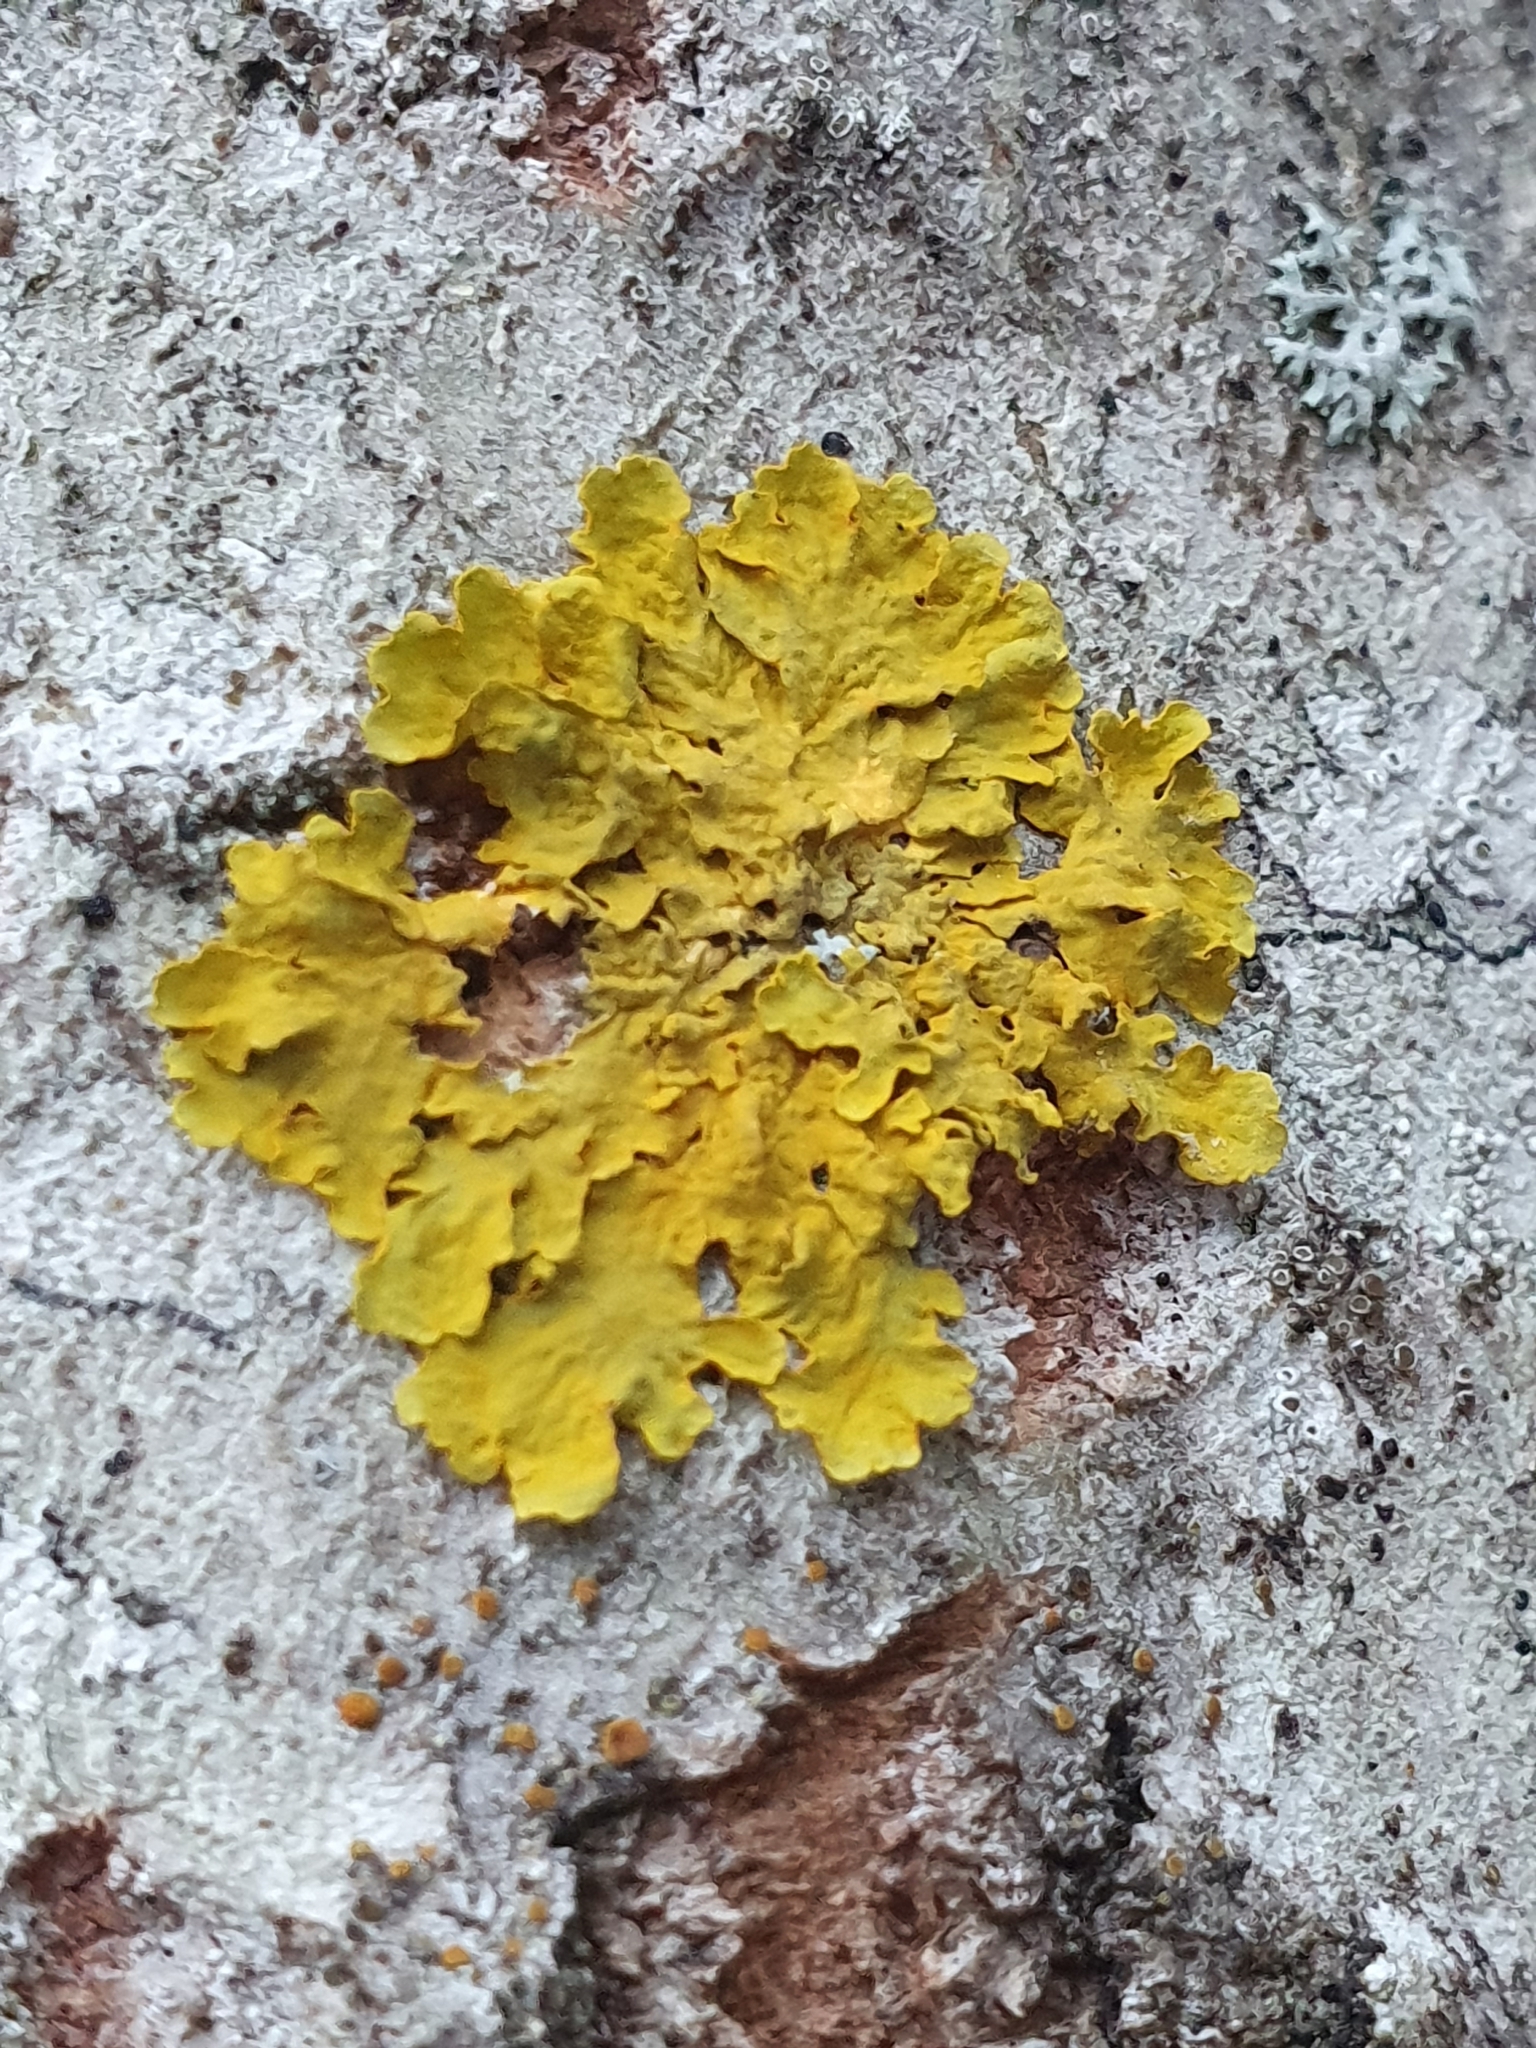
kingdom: Fungi
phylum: Ascomycota
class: Lecanoromycetes
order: Teloschistales
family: Teloschistaceae
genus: Xanthoria
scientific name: Xanthoria parietina
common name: Common orange lichen
